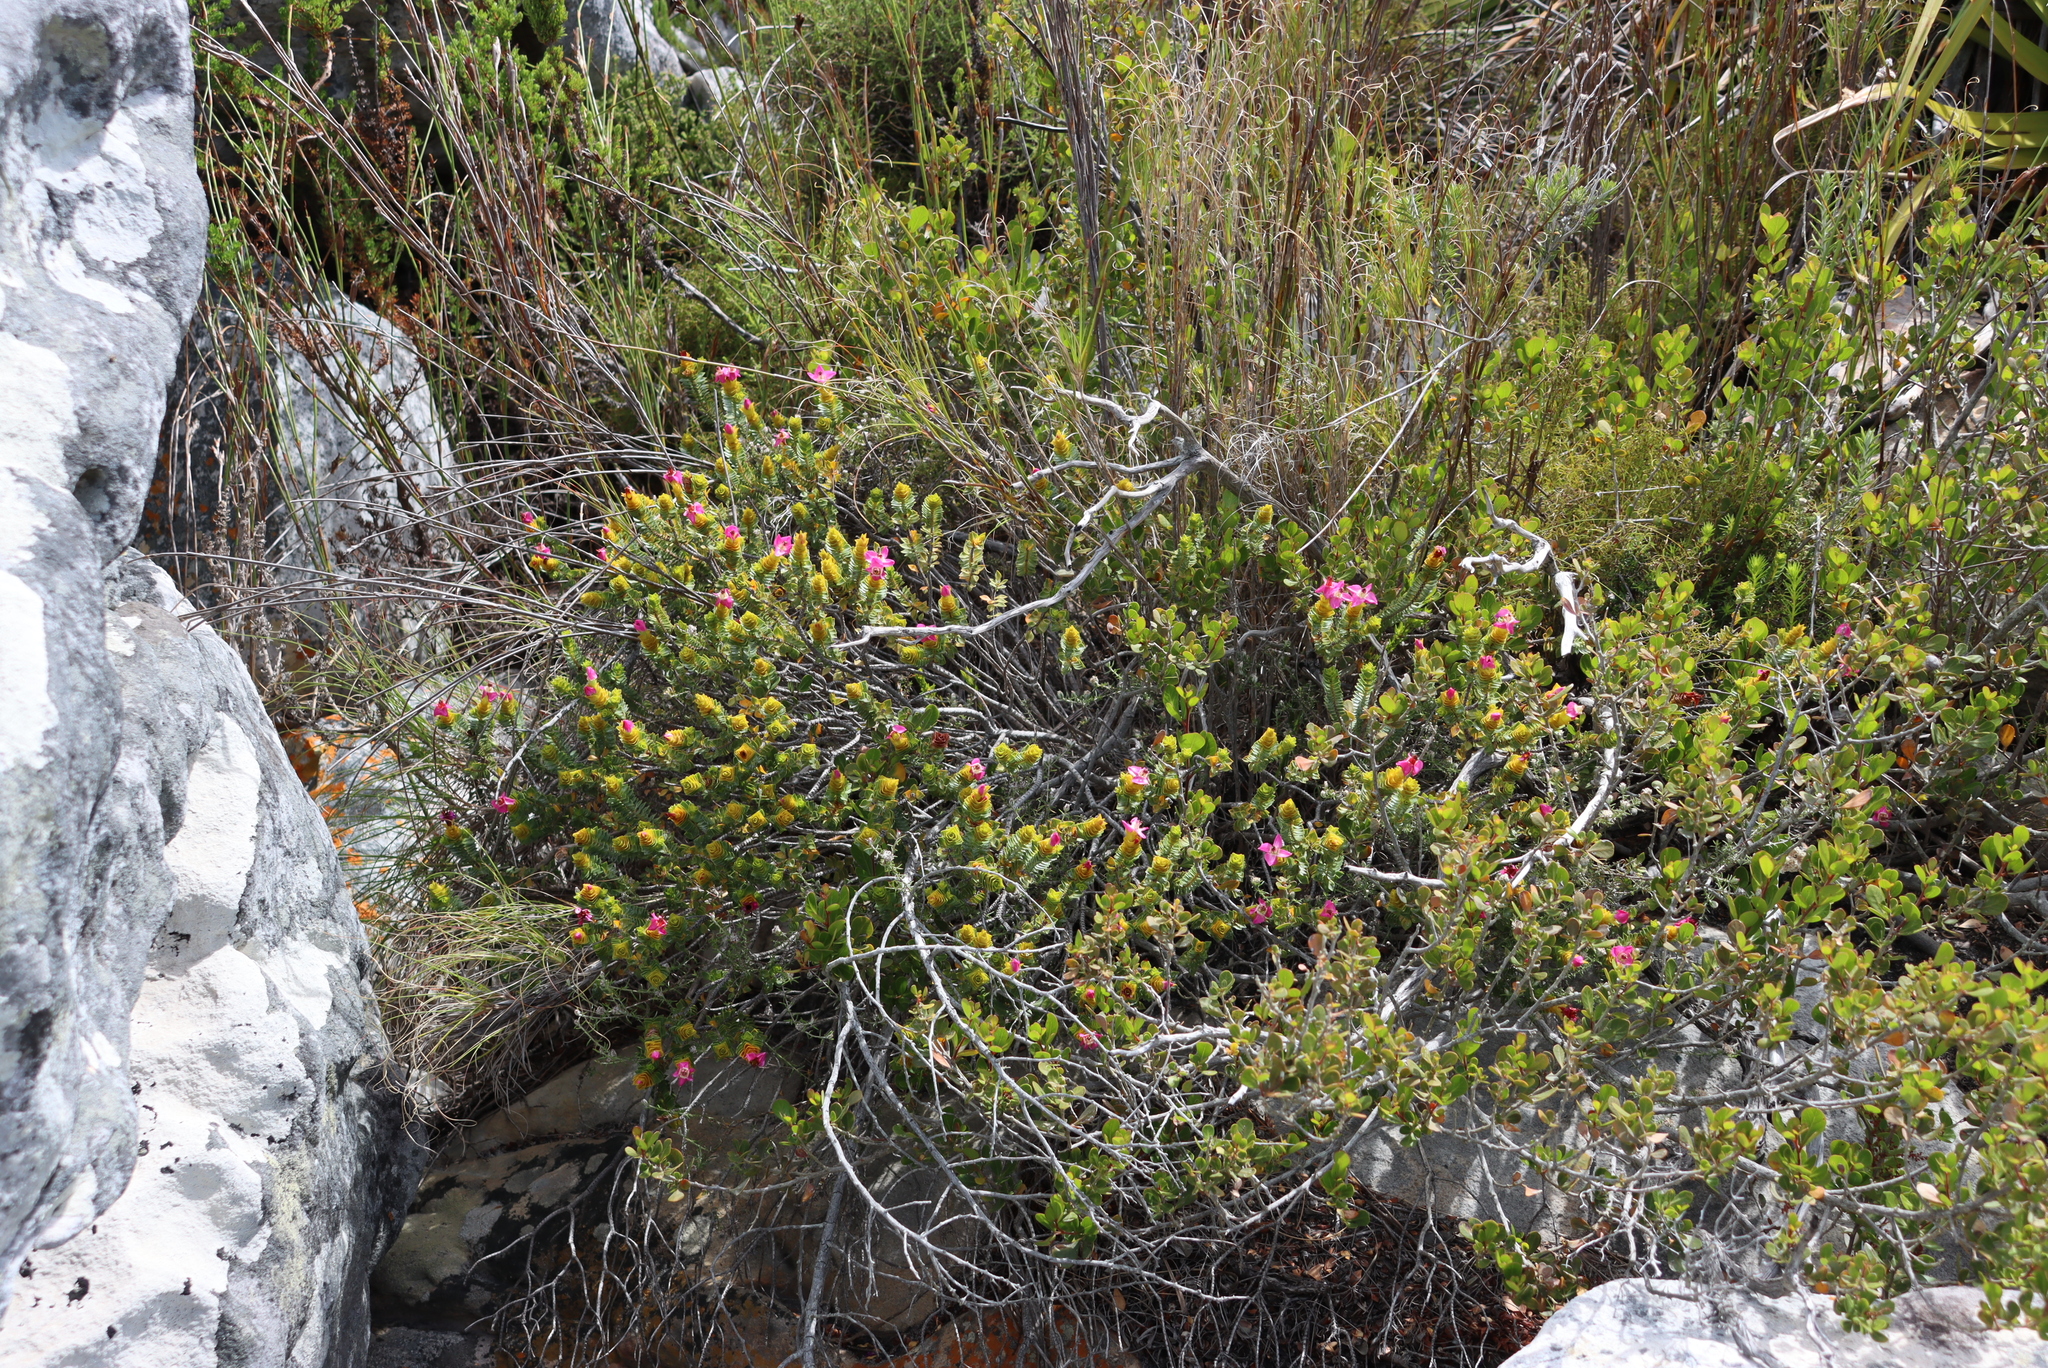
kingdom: Plantae
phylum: Tracheophyta
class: Magnoliopsida
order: Myrtales
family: Penaeaceae
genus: Saltera
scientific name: Saltera sarcocolla
